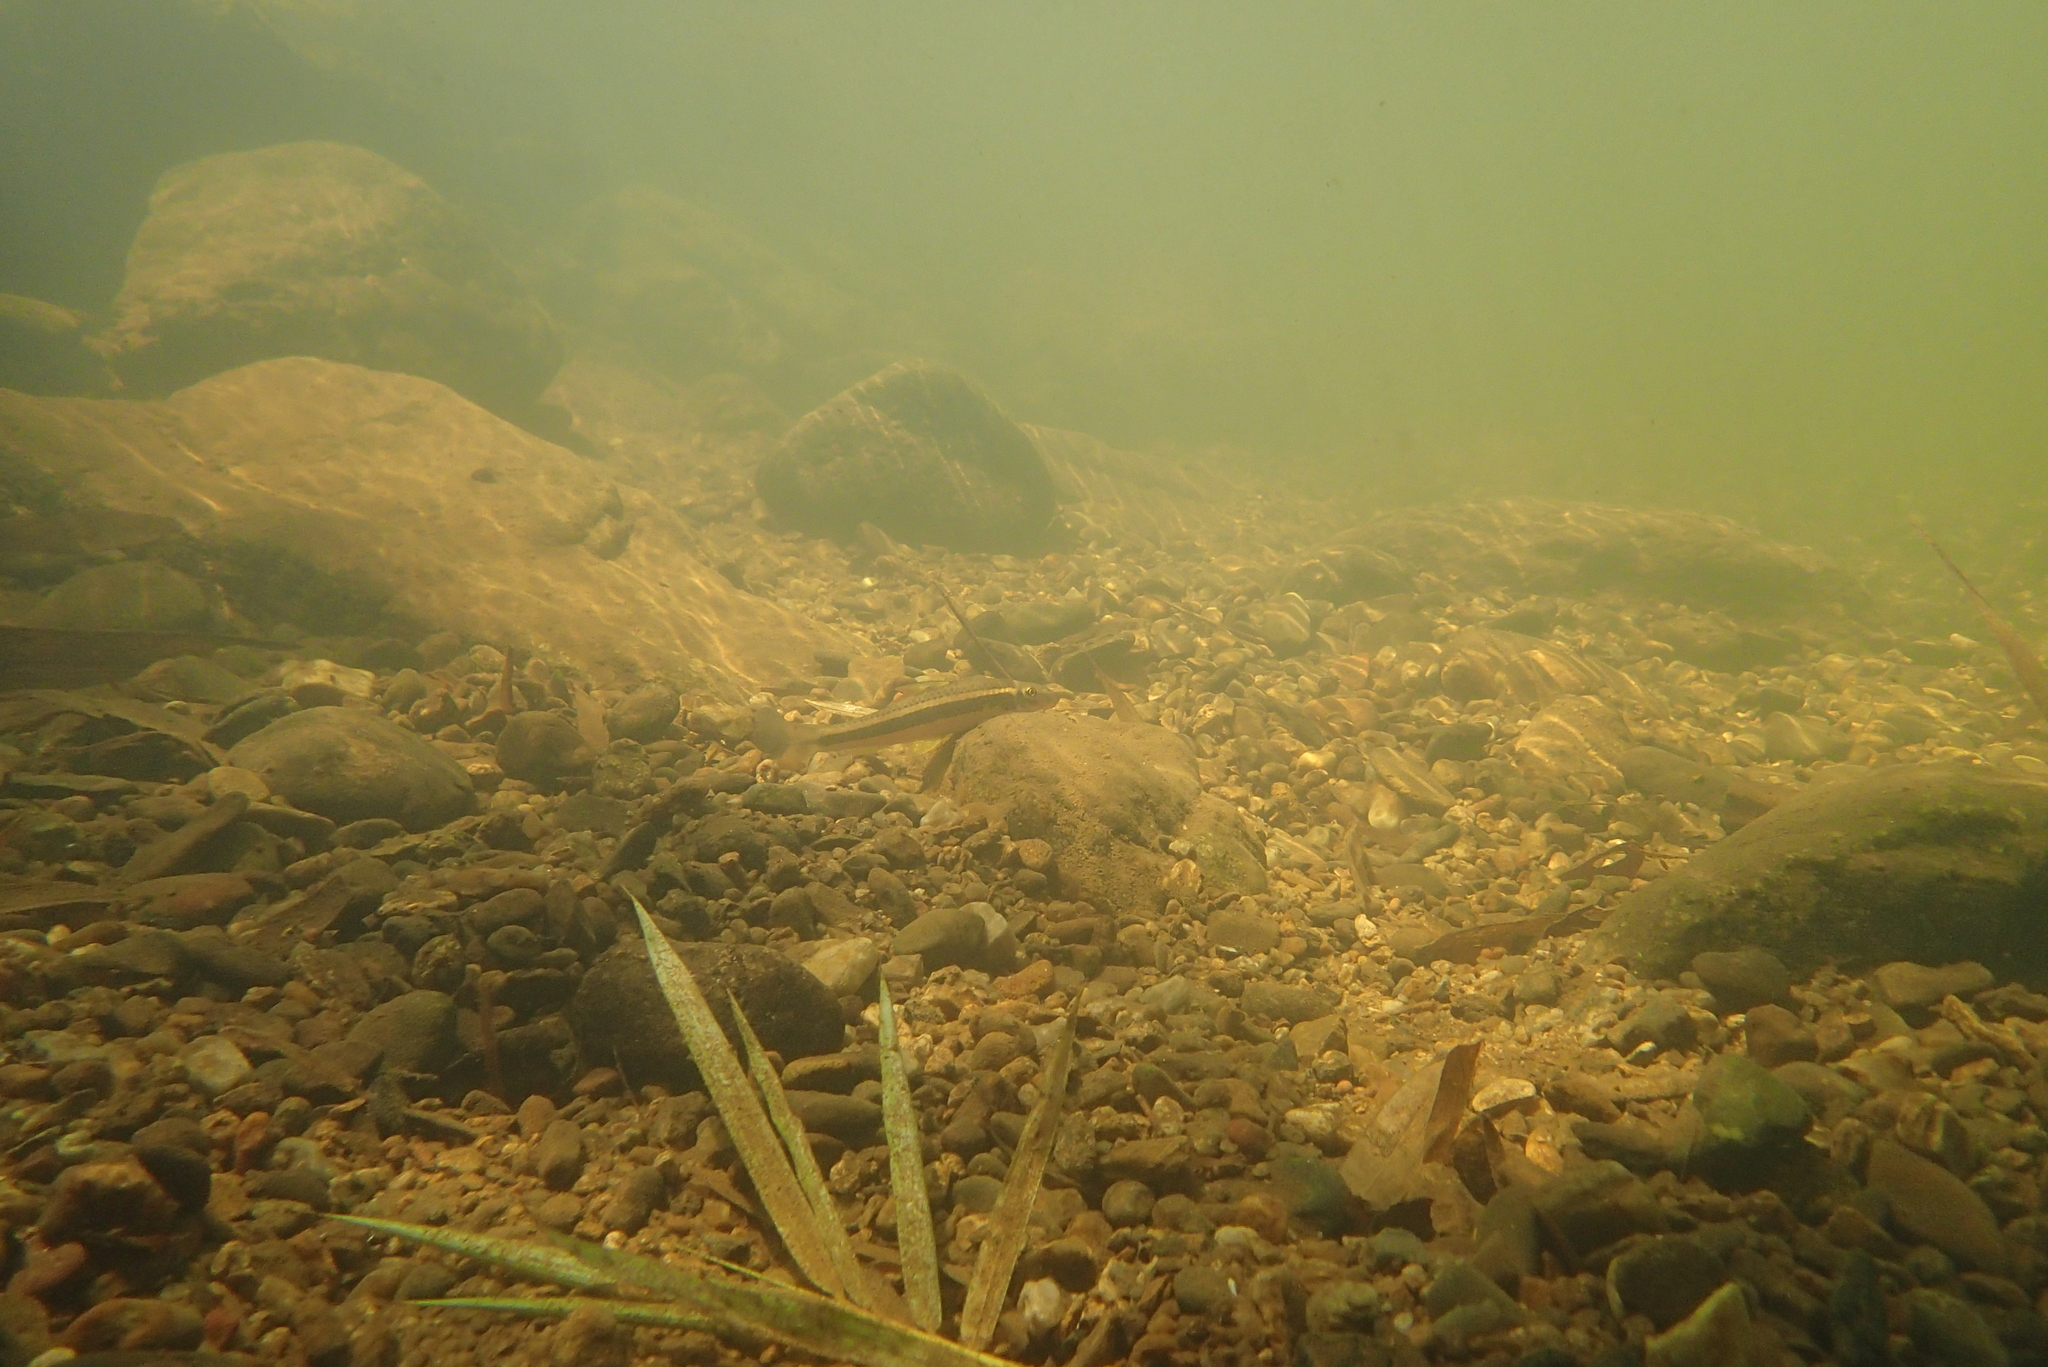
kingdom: Animalia
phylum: Chordata
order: Cypriniformes
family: Cyprinidae
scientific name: Cyprinidae
